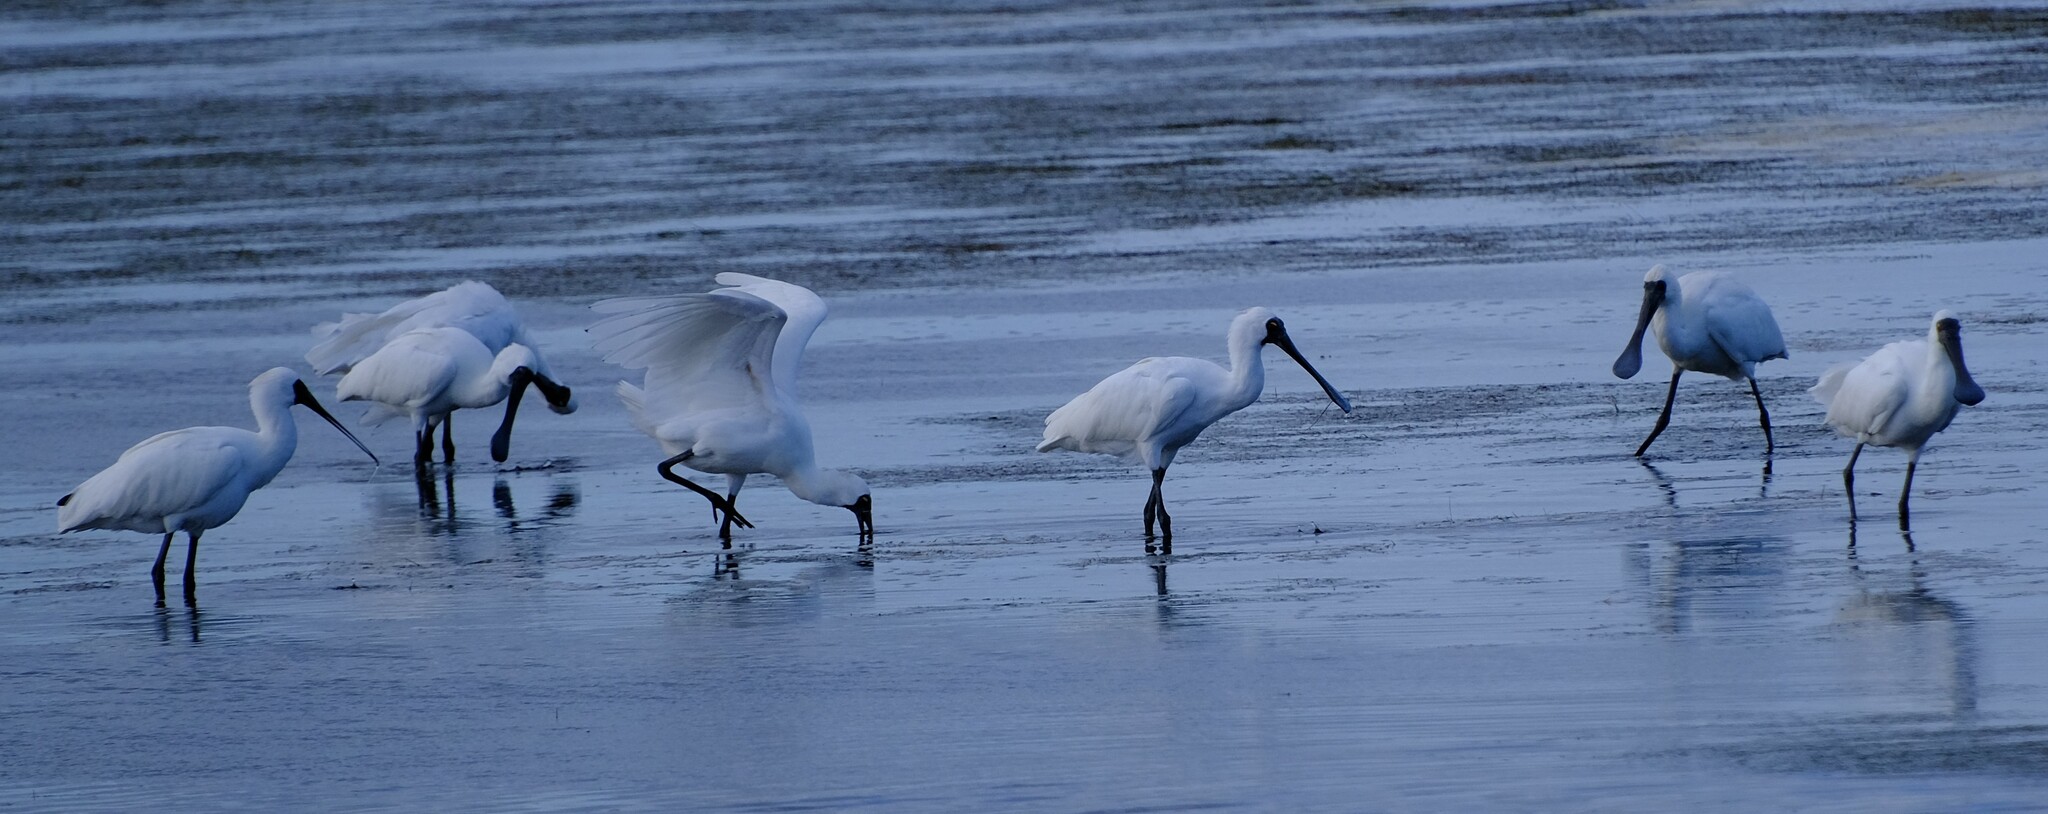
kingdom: Animalia
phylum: Chordata
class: Aves
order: Pelecaniformes
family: Threskiornithidae
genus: Platalea
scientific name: Platalea regia
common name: Royal spoonbill
